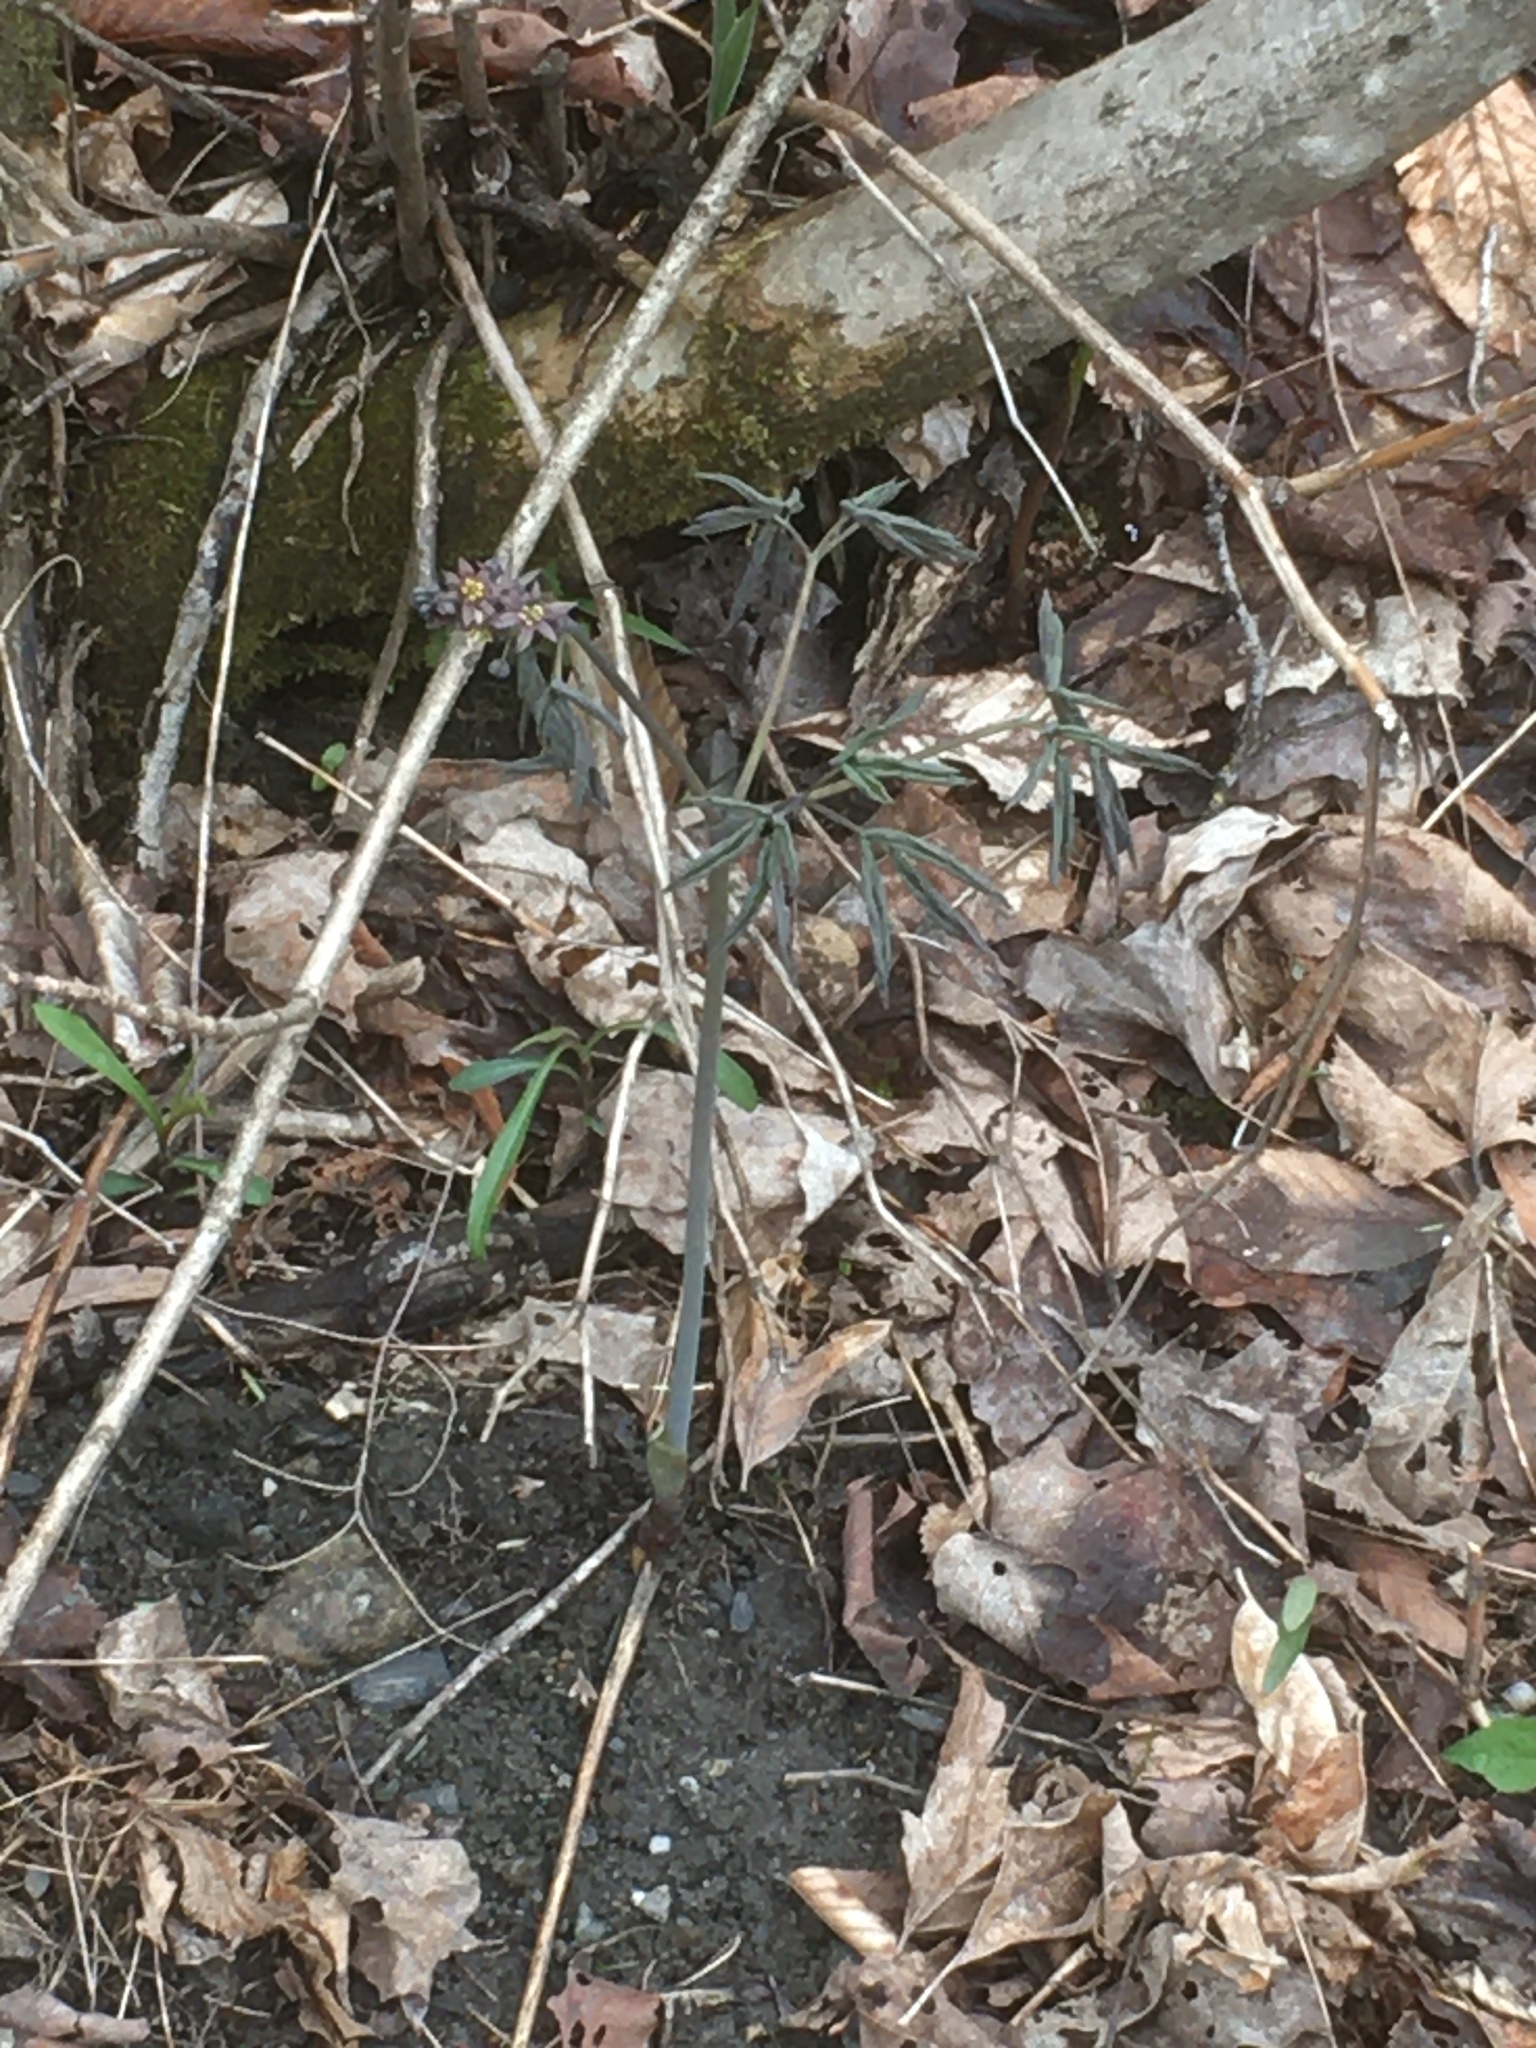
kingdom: Plantae
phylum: Tracheophyta
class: Magnoliopsida
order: Ranunculales
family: Berberidaceae
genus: Caulophyllum
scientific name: Caulophyllum giganteum
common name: Blue cohosh
